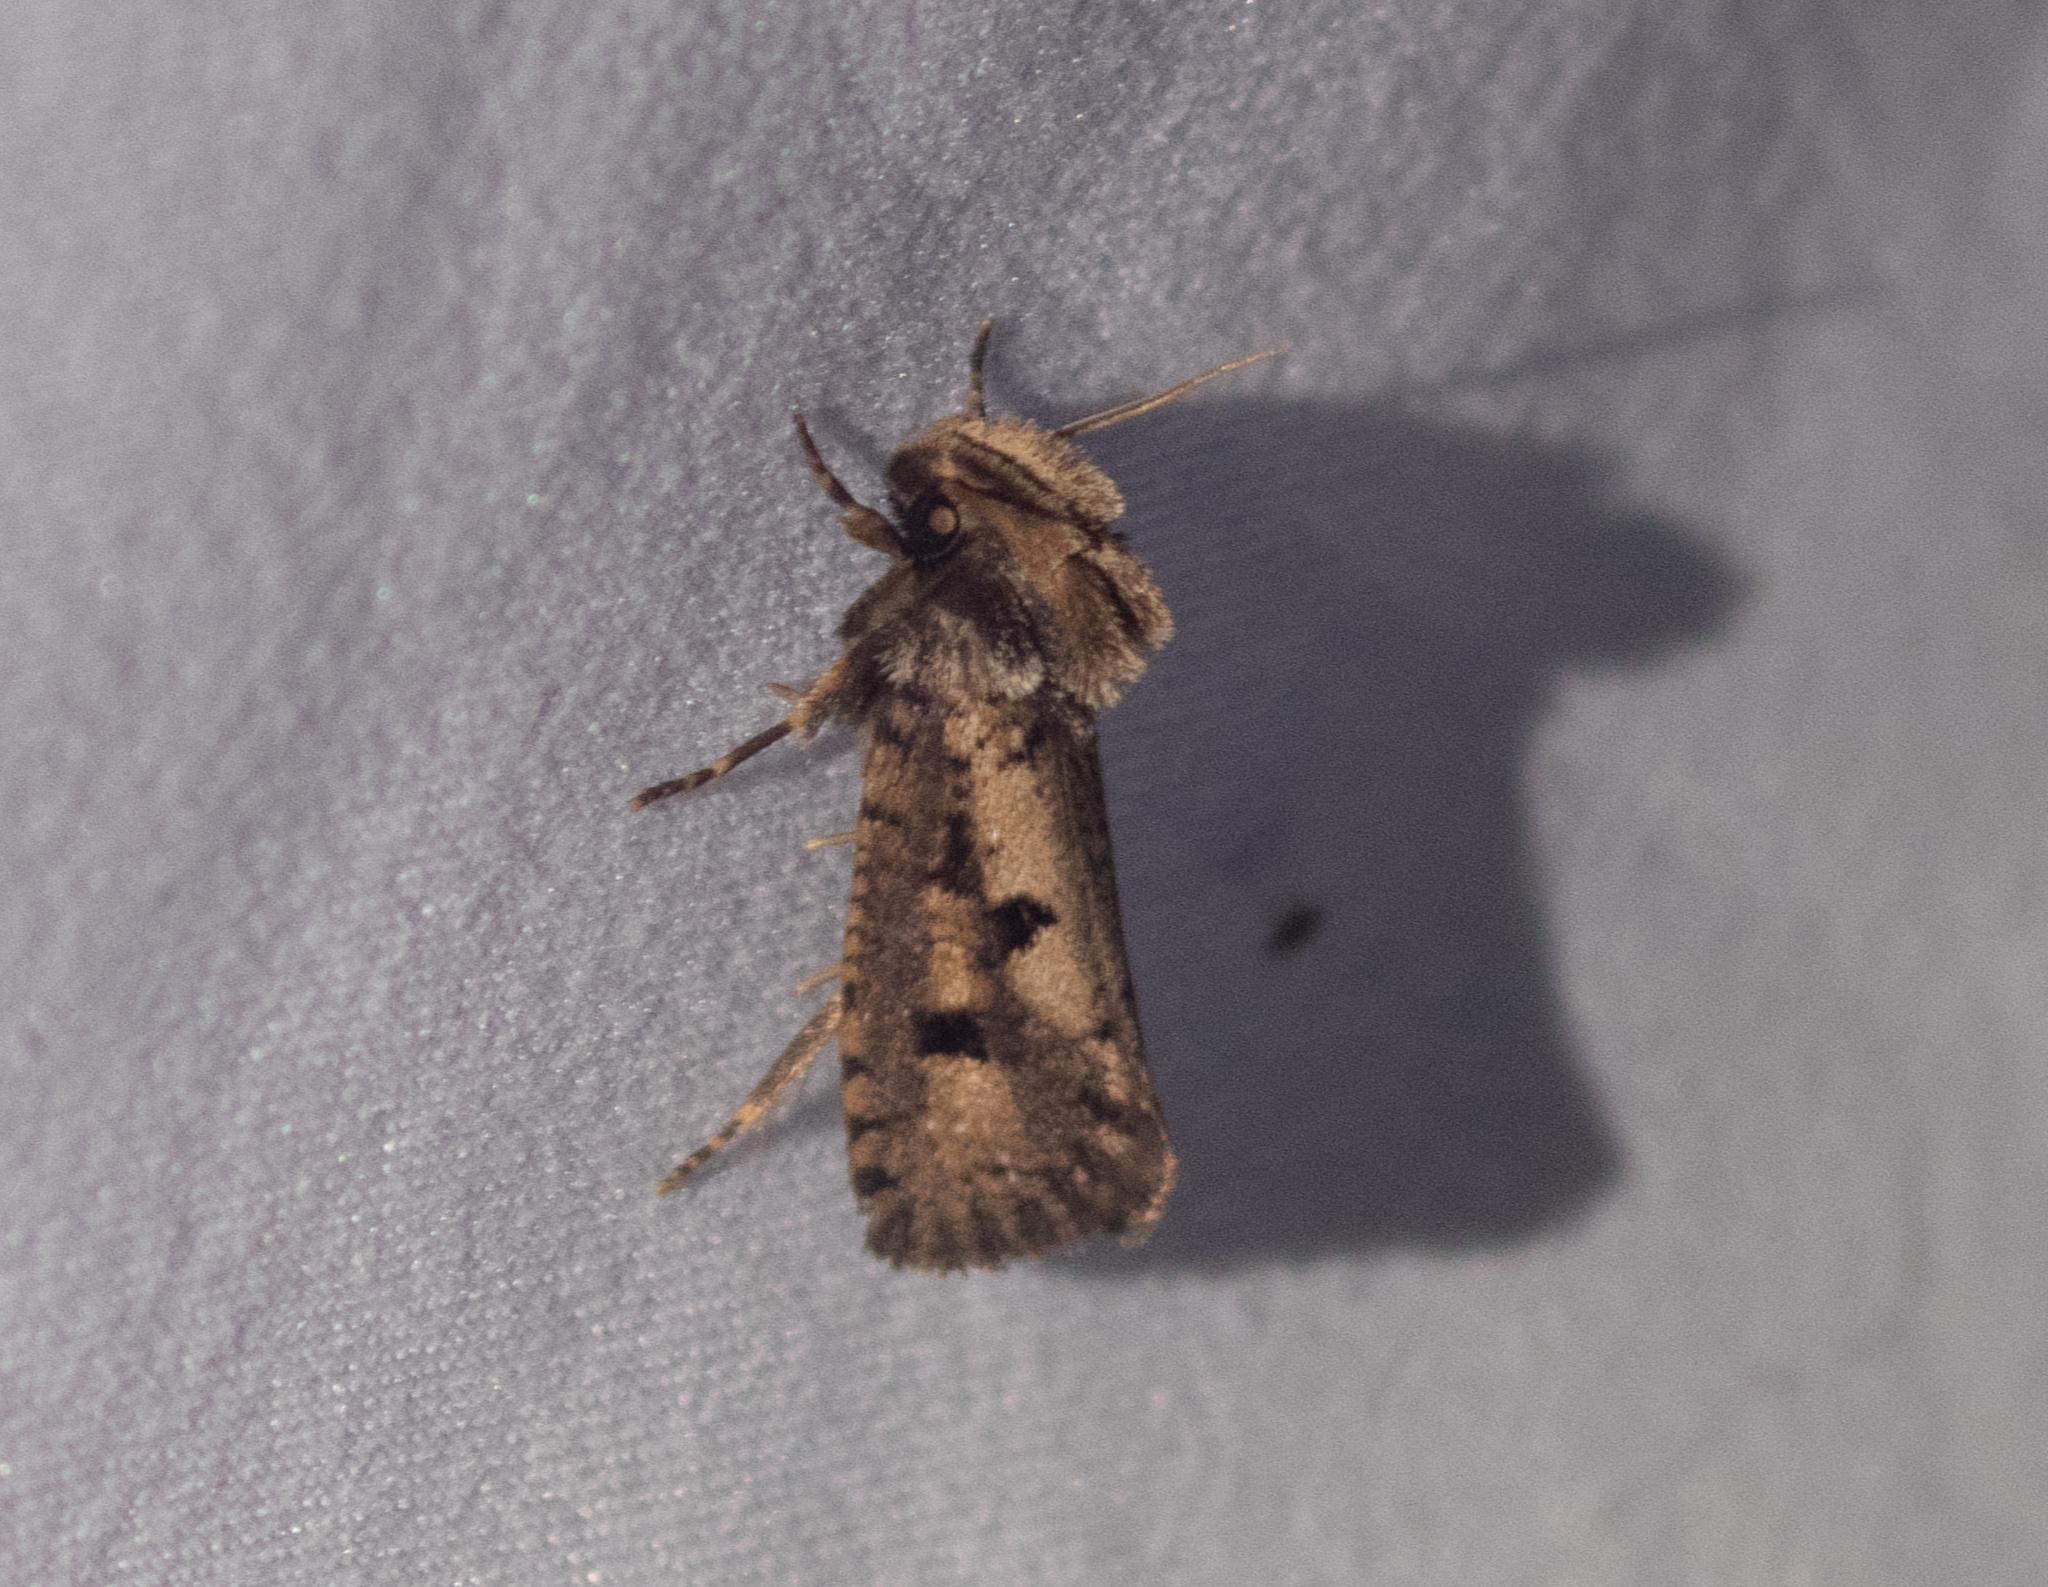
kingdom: Animalia
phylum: Arthropoda
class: Insecta
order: Lepidoptera
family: Tineidae
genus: Acrolophus
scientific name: Acrolophus popeanella
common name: Clemens' grass tubeworm moth
